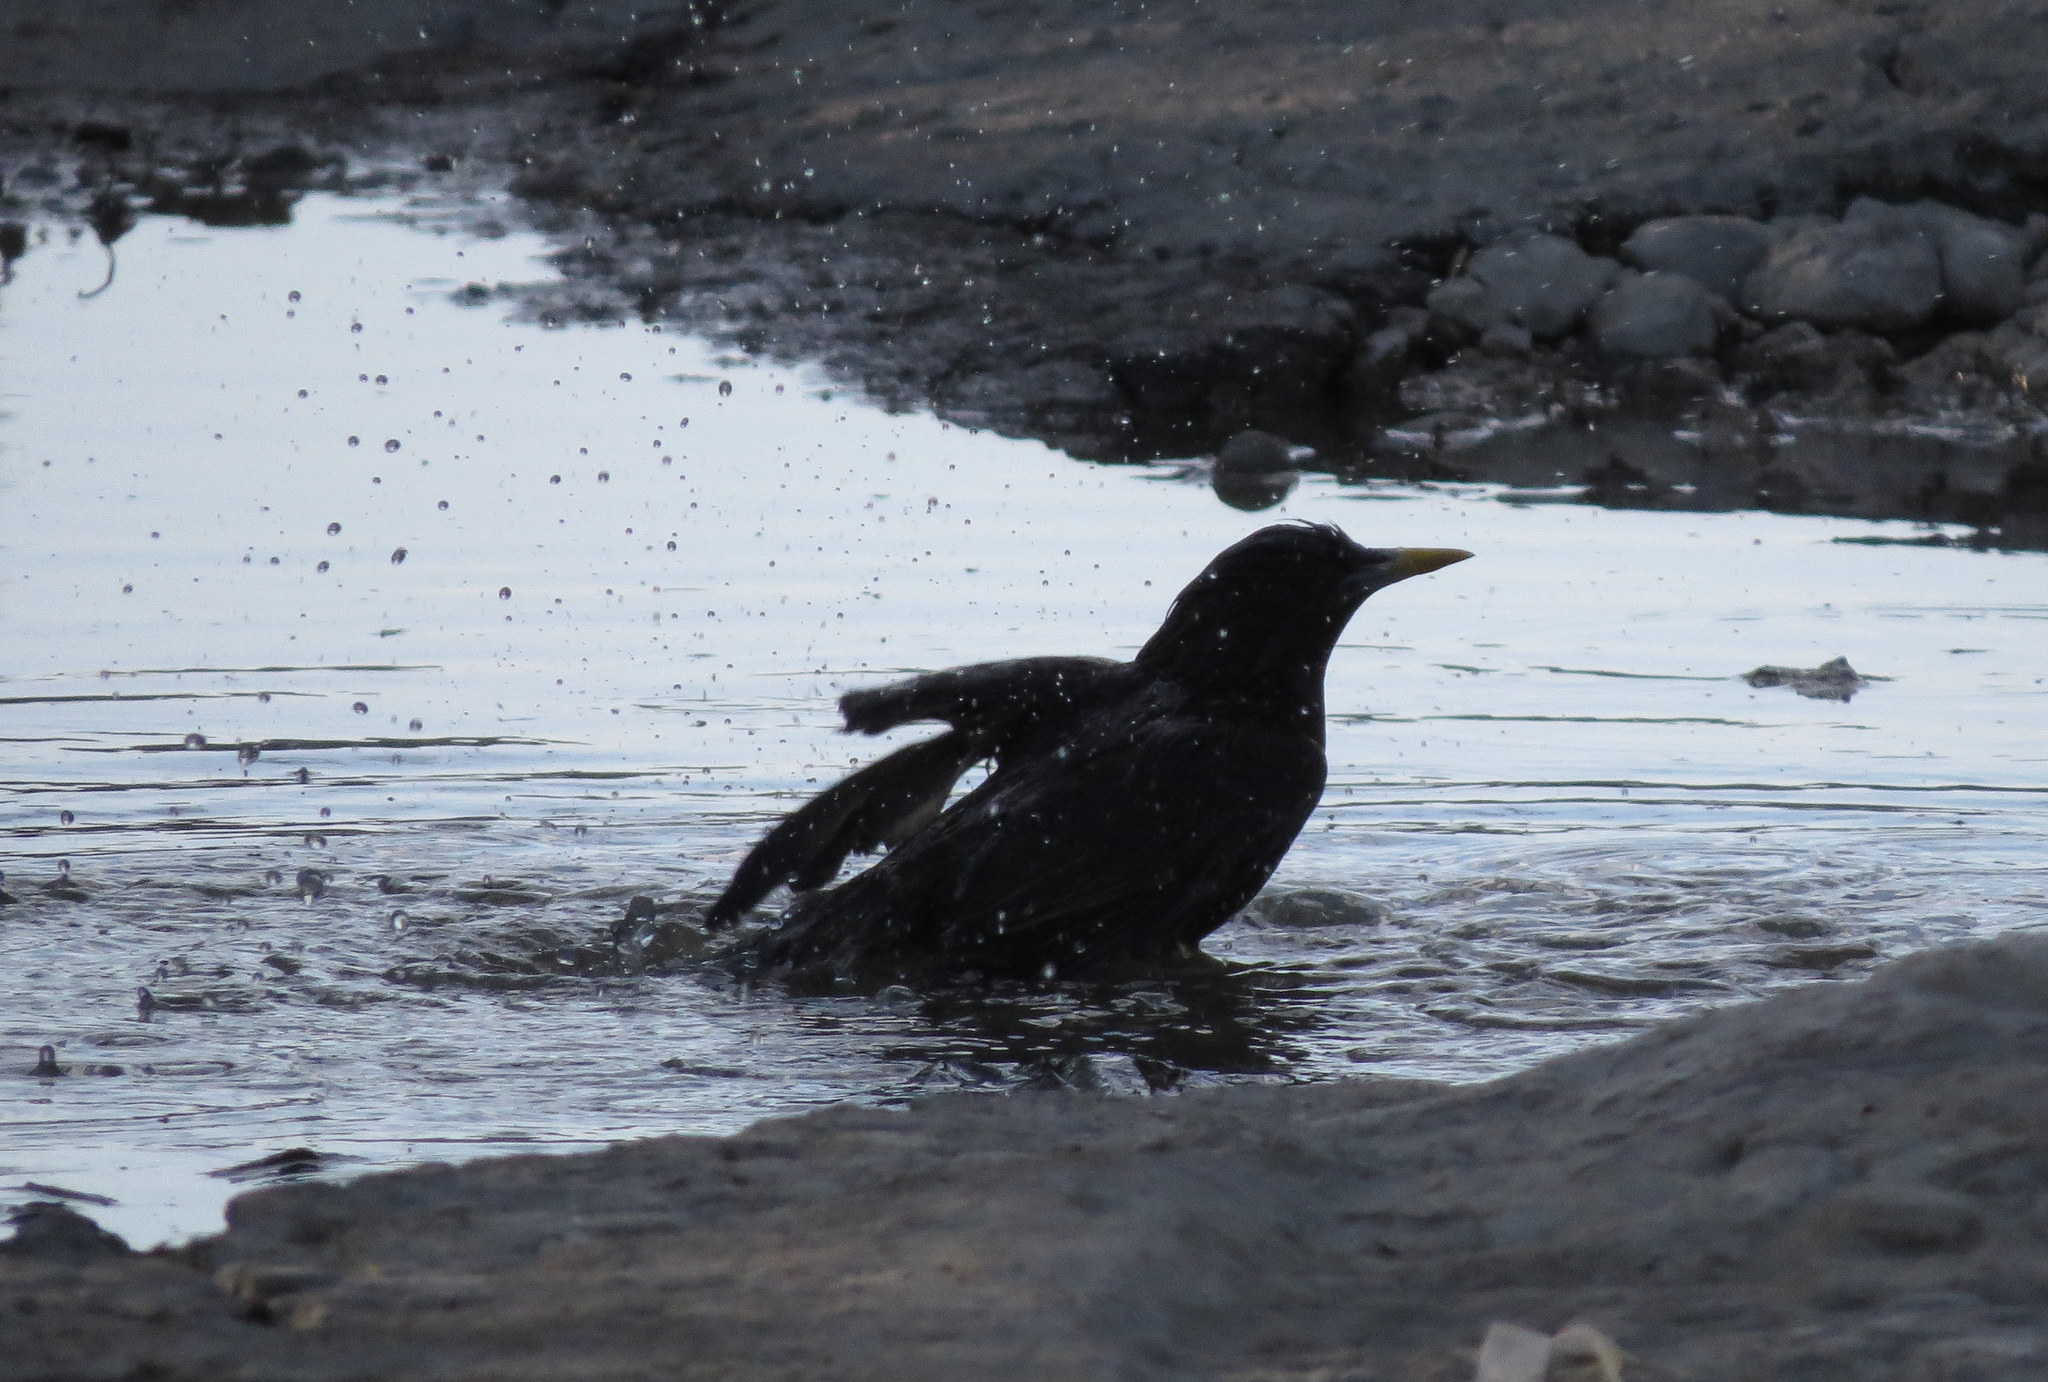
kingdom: Animalia
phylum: Chordata
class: Aves
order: Passeriformes
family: Sturnidae
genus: Sturnus
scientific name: Sturnus vulgaris
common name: Common starling
